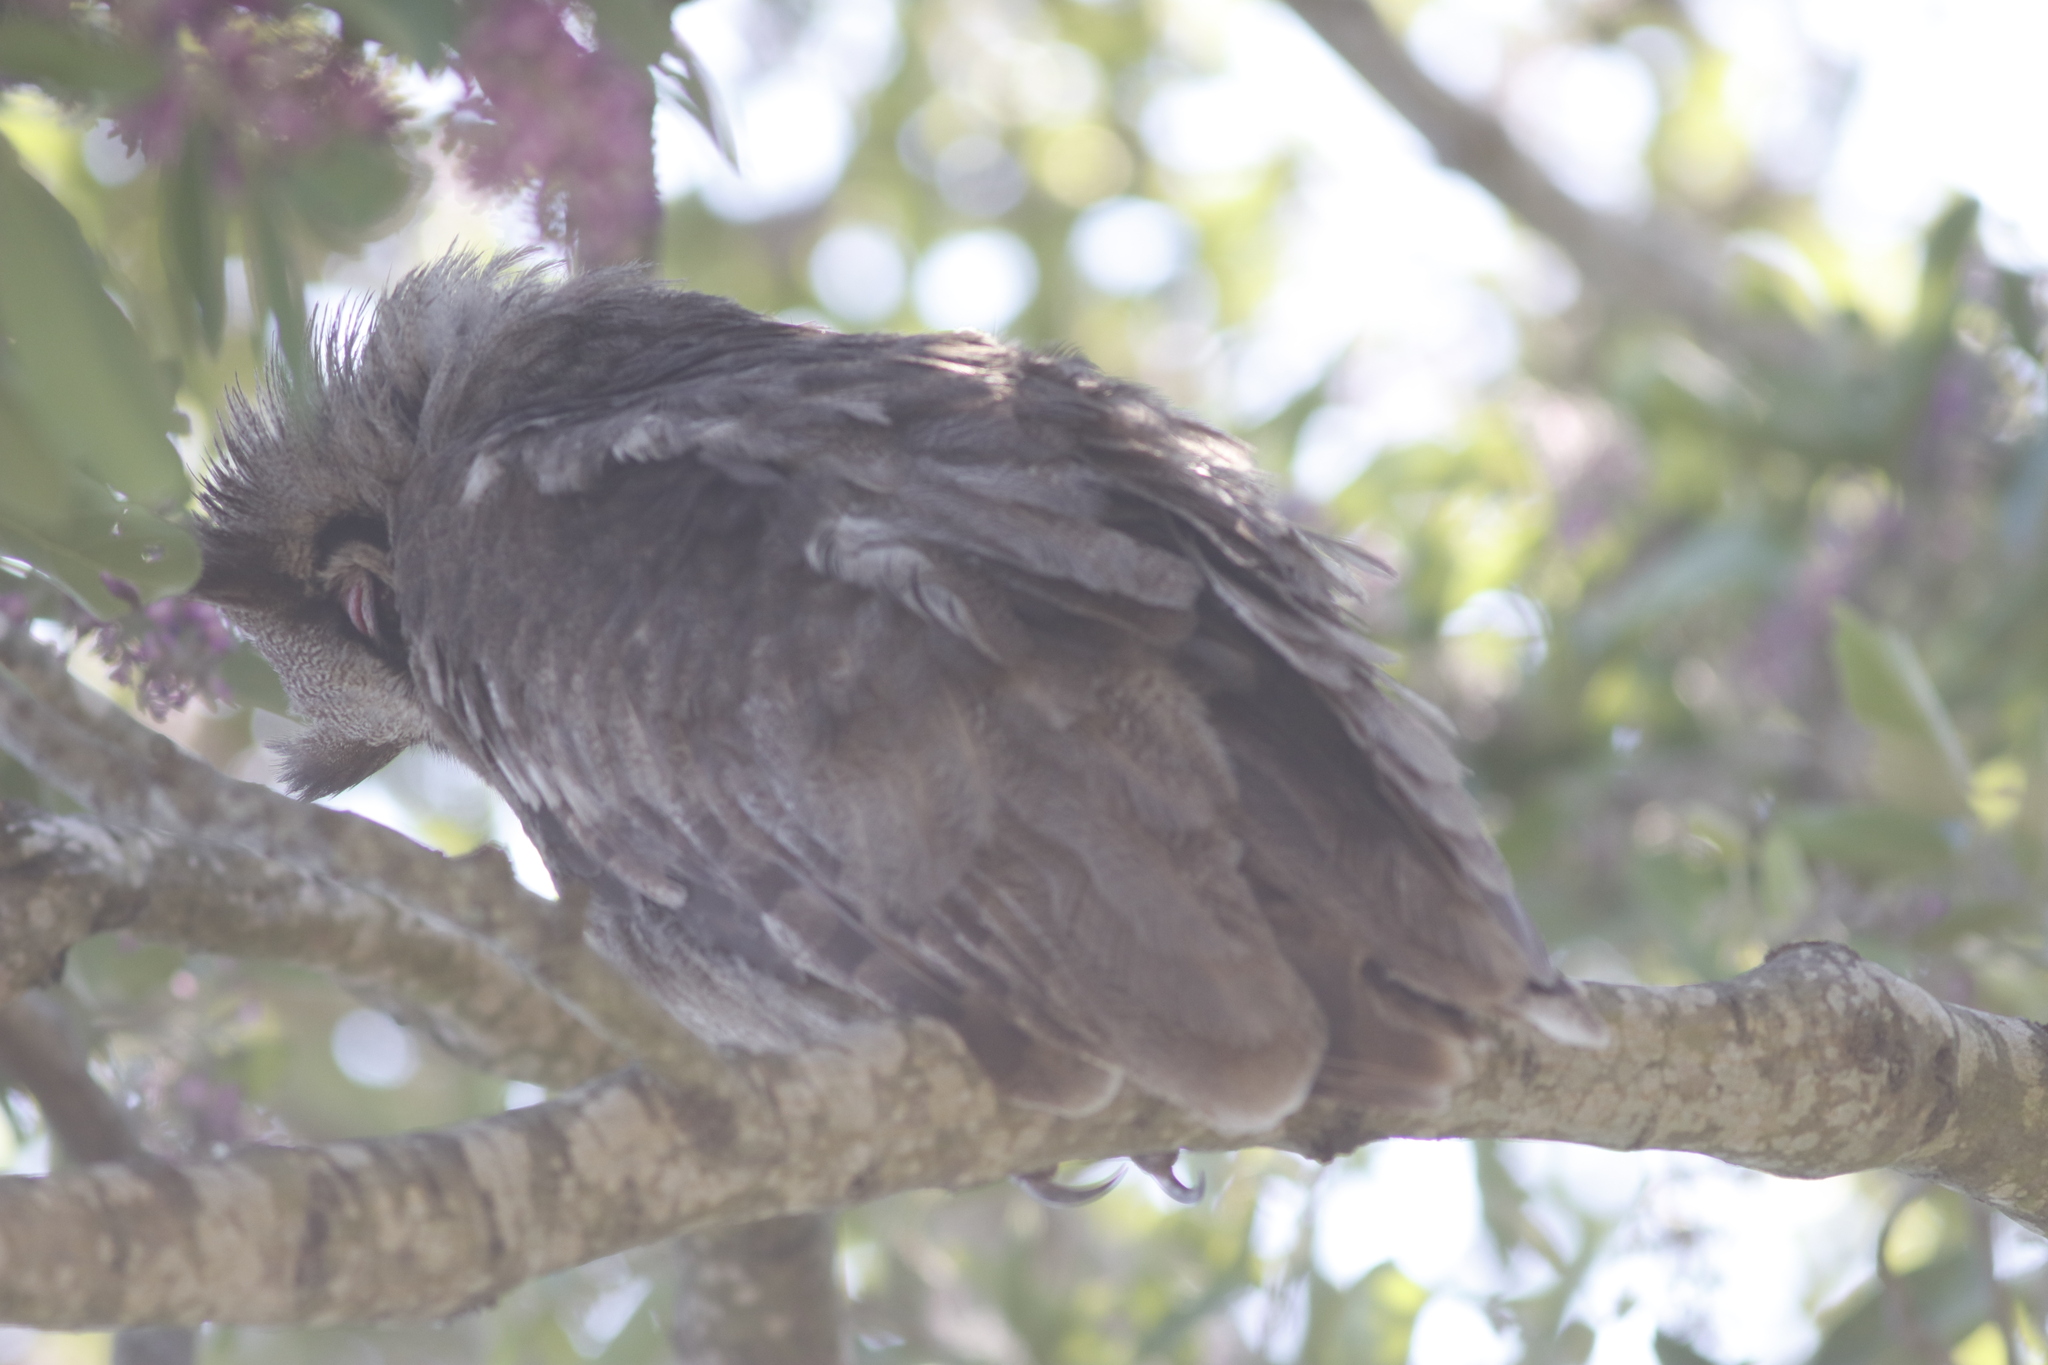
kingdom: Animalia
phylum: Chordata
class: Aves
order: Strigiformes
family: Strigidae
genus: Bubo
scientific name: Bubo lacteus
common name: Verreaux's eagle-owl
